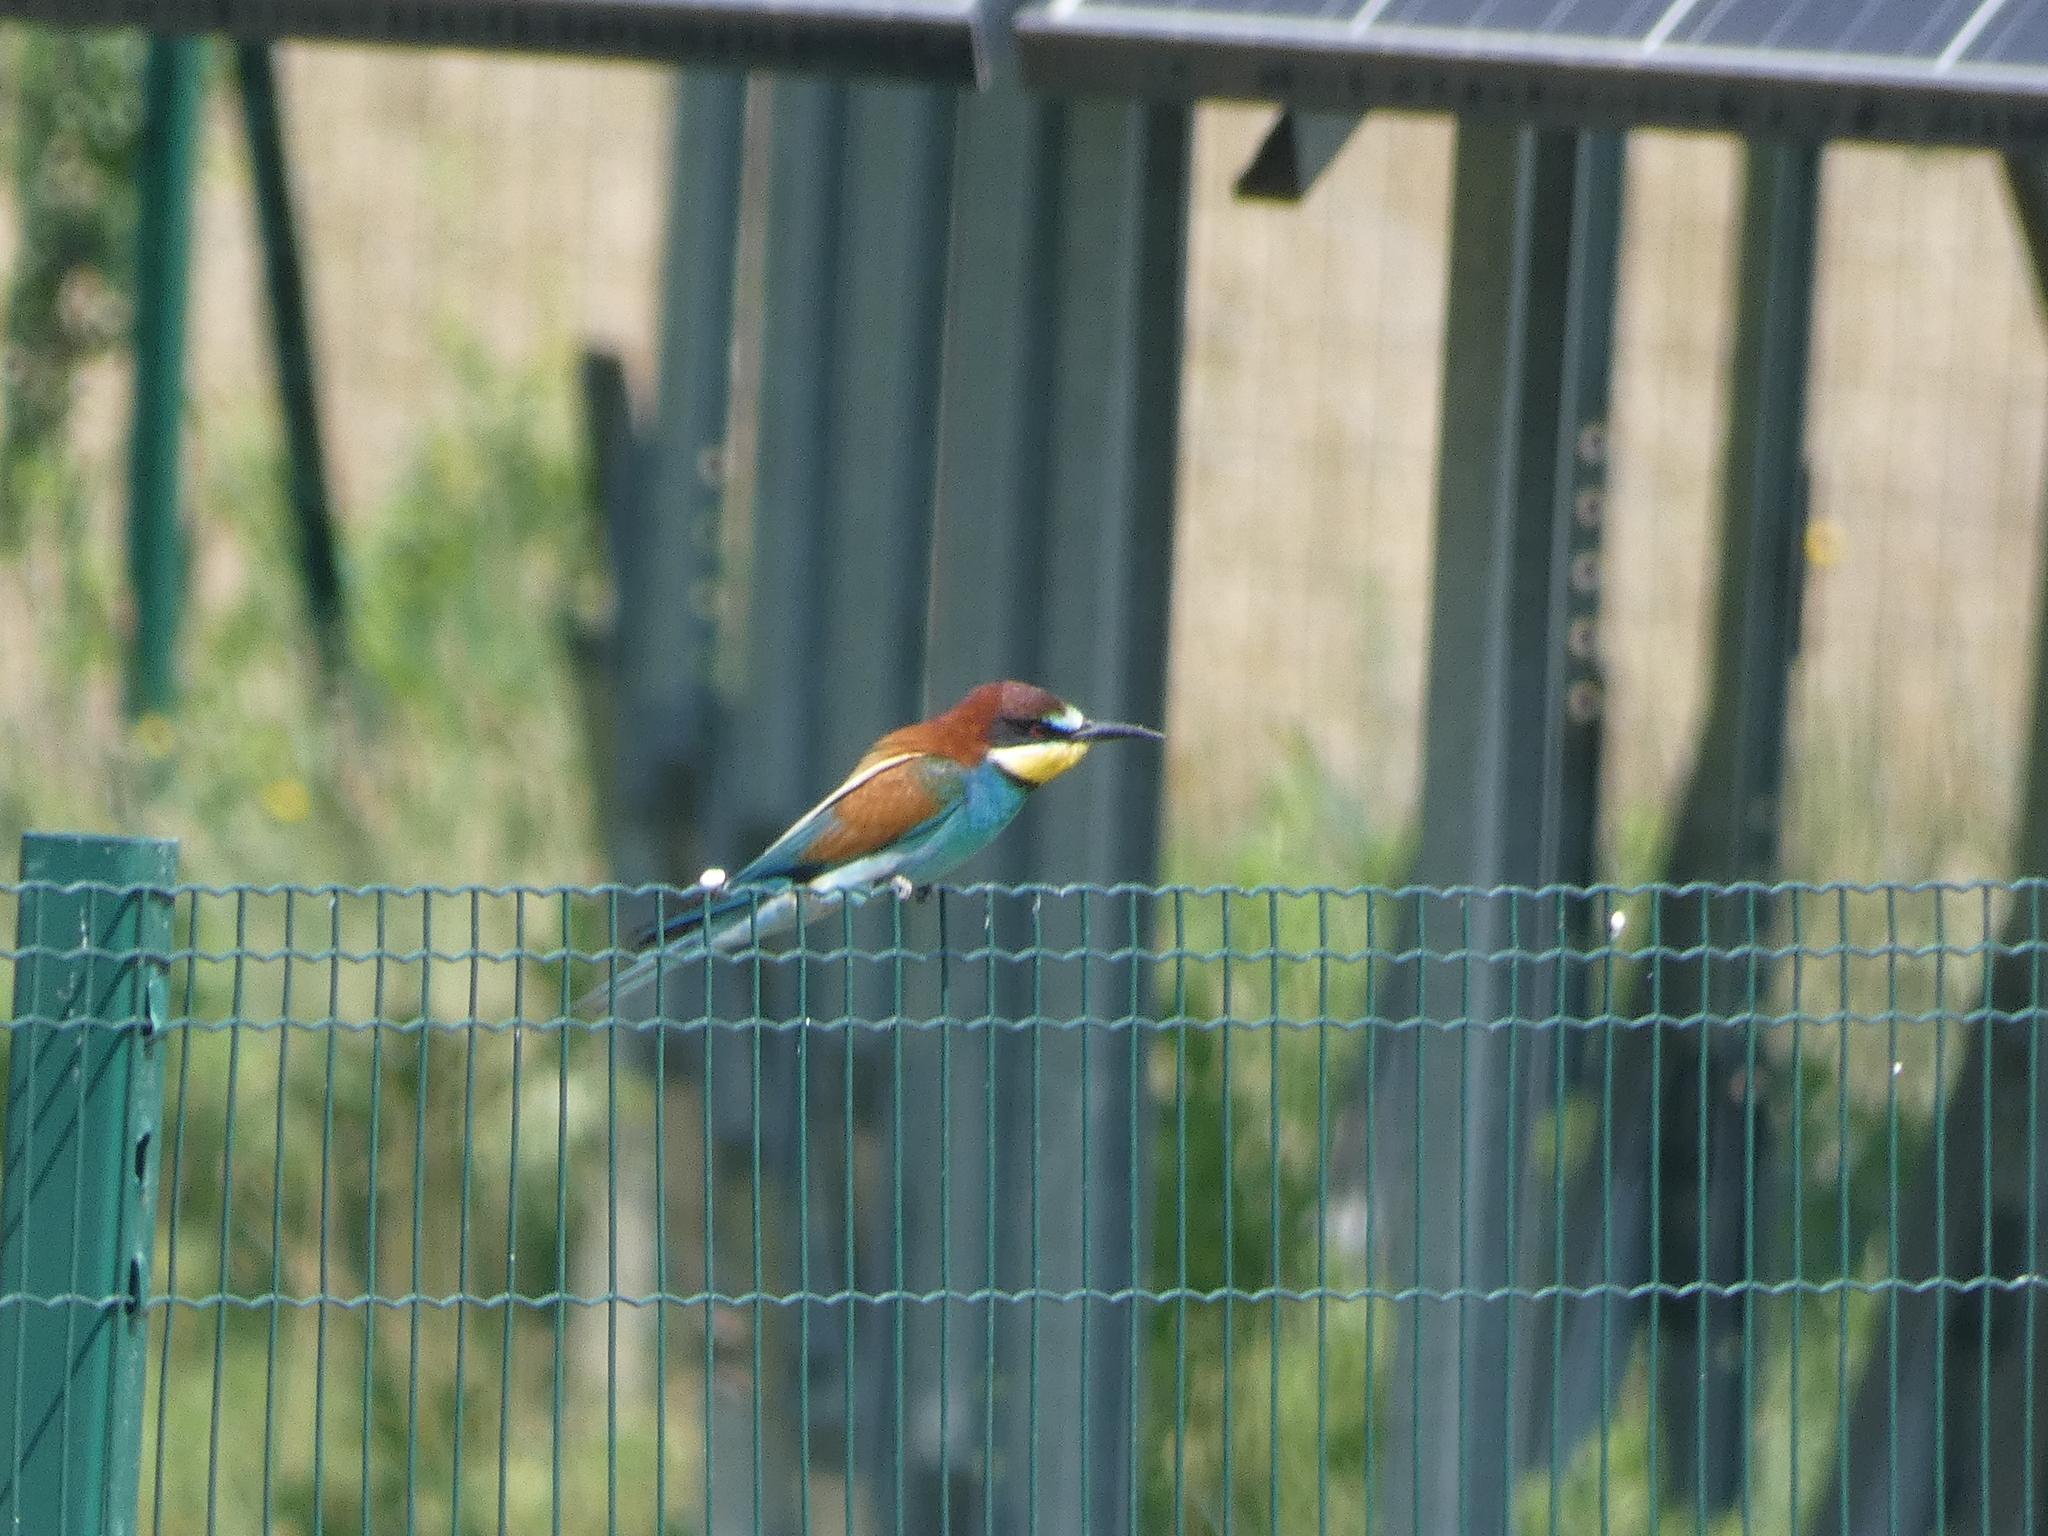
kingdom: Animalia
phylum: Chordata
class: Aves
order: Coraciiformes
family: Meropidae
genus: Merops
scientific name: Merops apiaster
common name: European bee-eater
